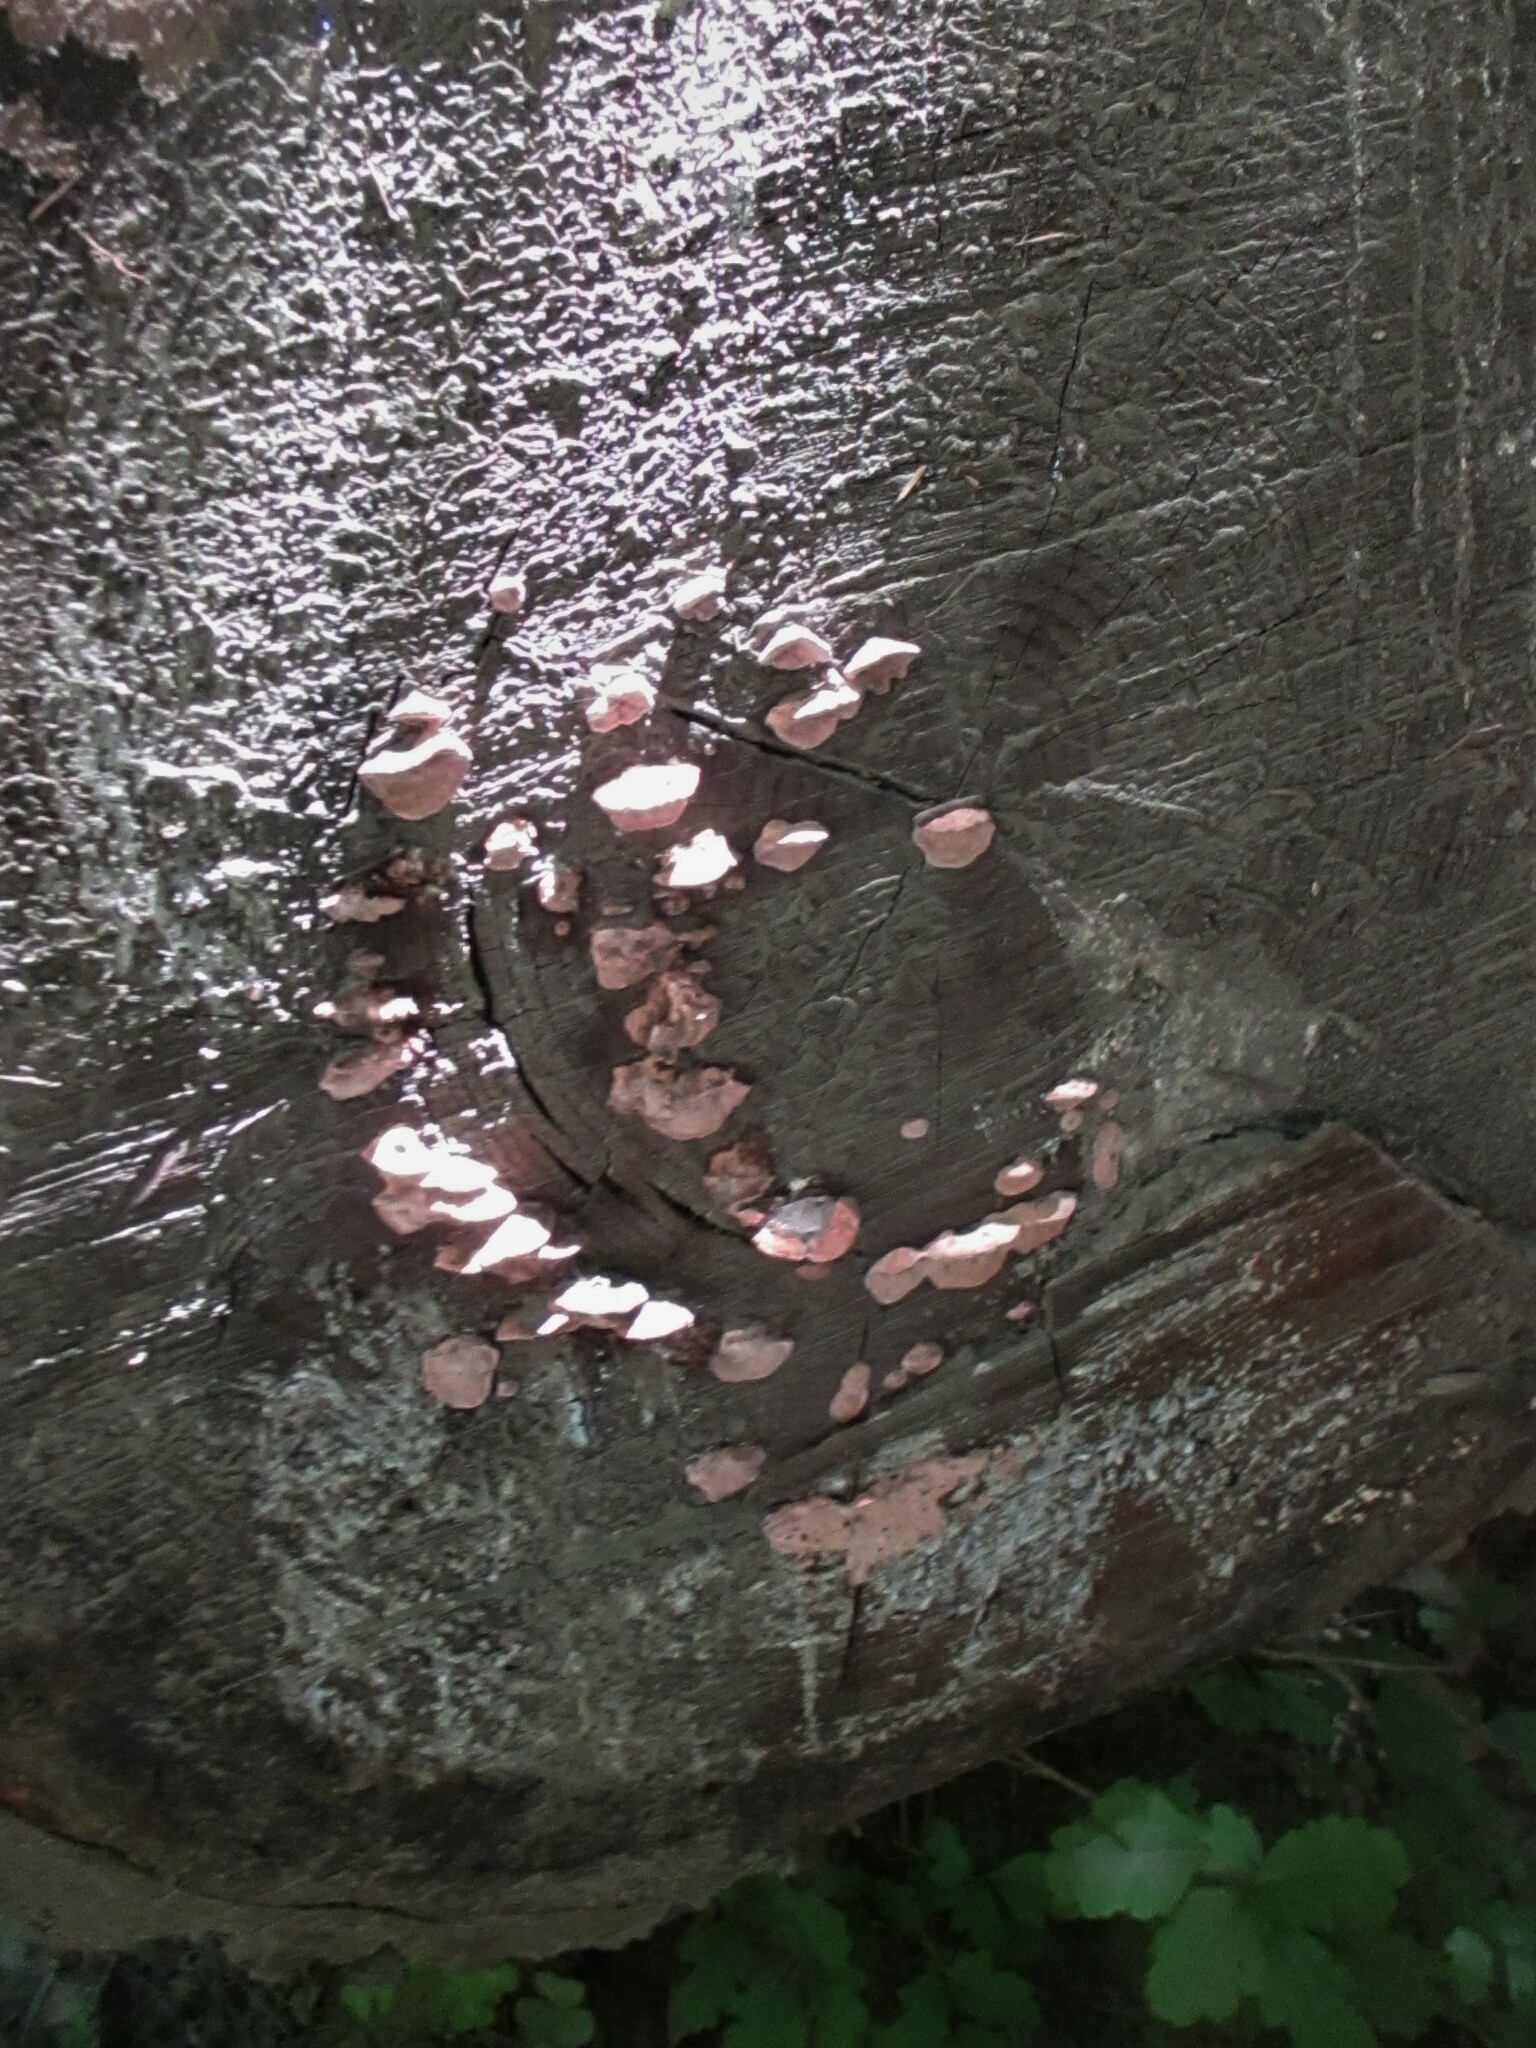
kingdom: Fungi
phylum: Basidiomycota
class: Agaricomycetes
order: Polyporales
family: Fomitopsidaceae
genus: Rhodofomes
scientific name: Rhodofomes cajanderi
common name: Rosy conk
